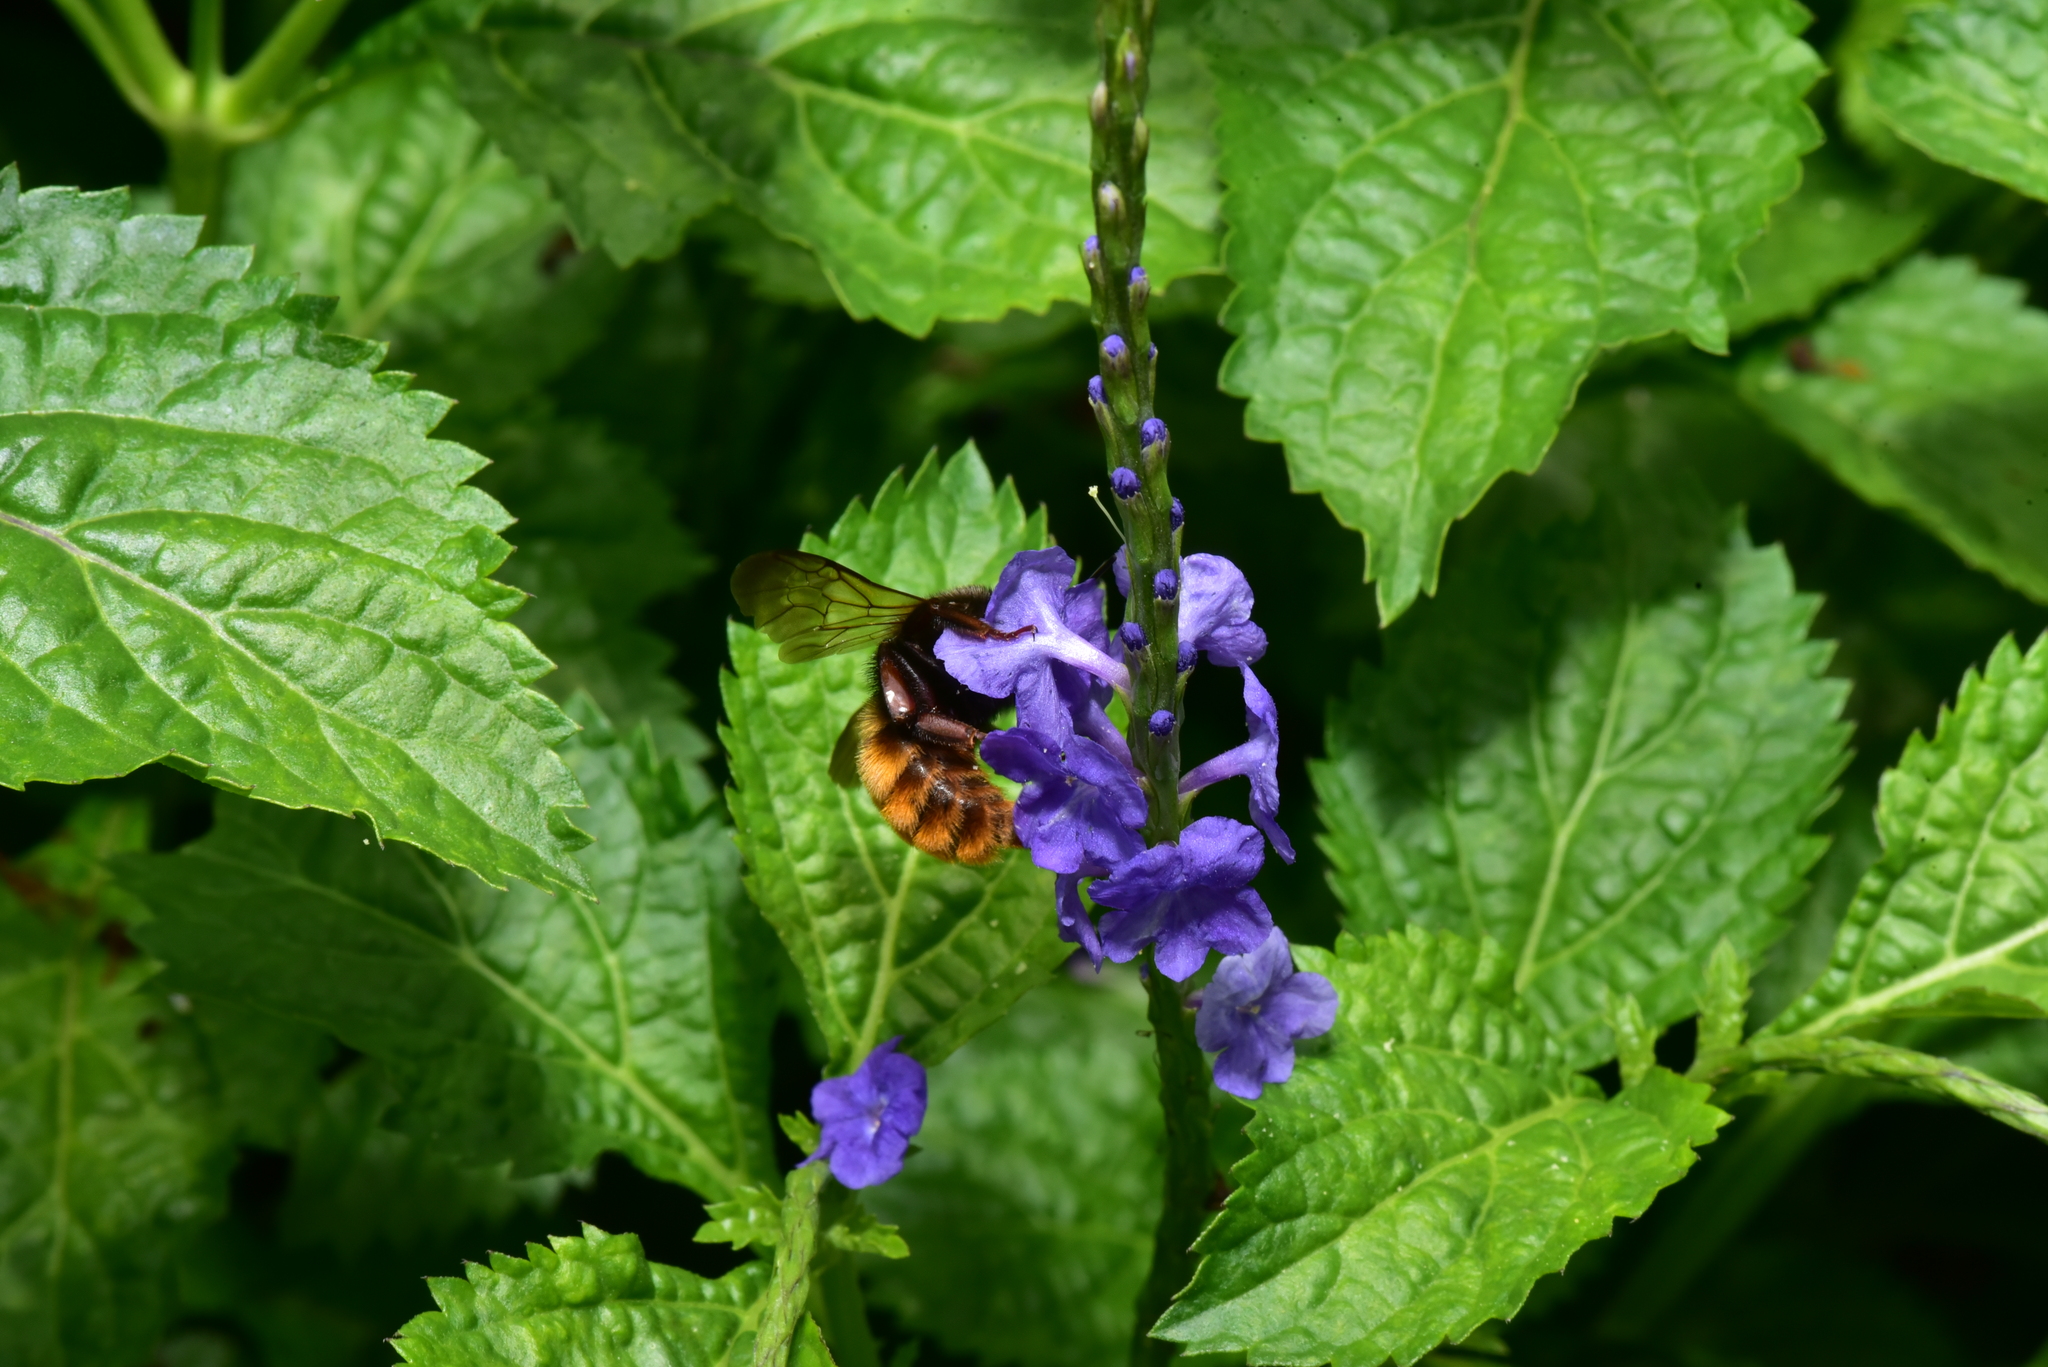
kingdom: Animalia
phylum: Arthropoda
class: Insecta
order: Hymenoptera
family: Apidae
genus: Bombus
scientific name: Bombus bicoloratus
